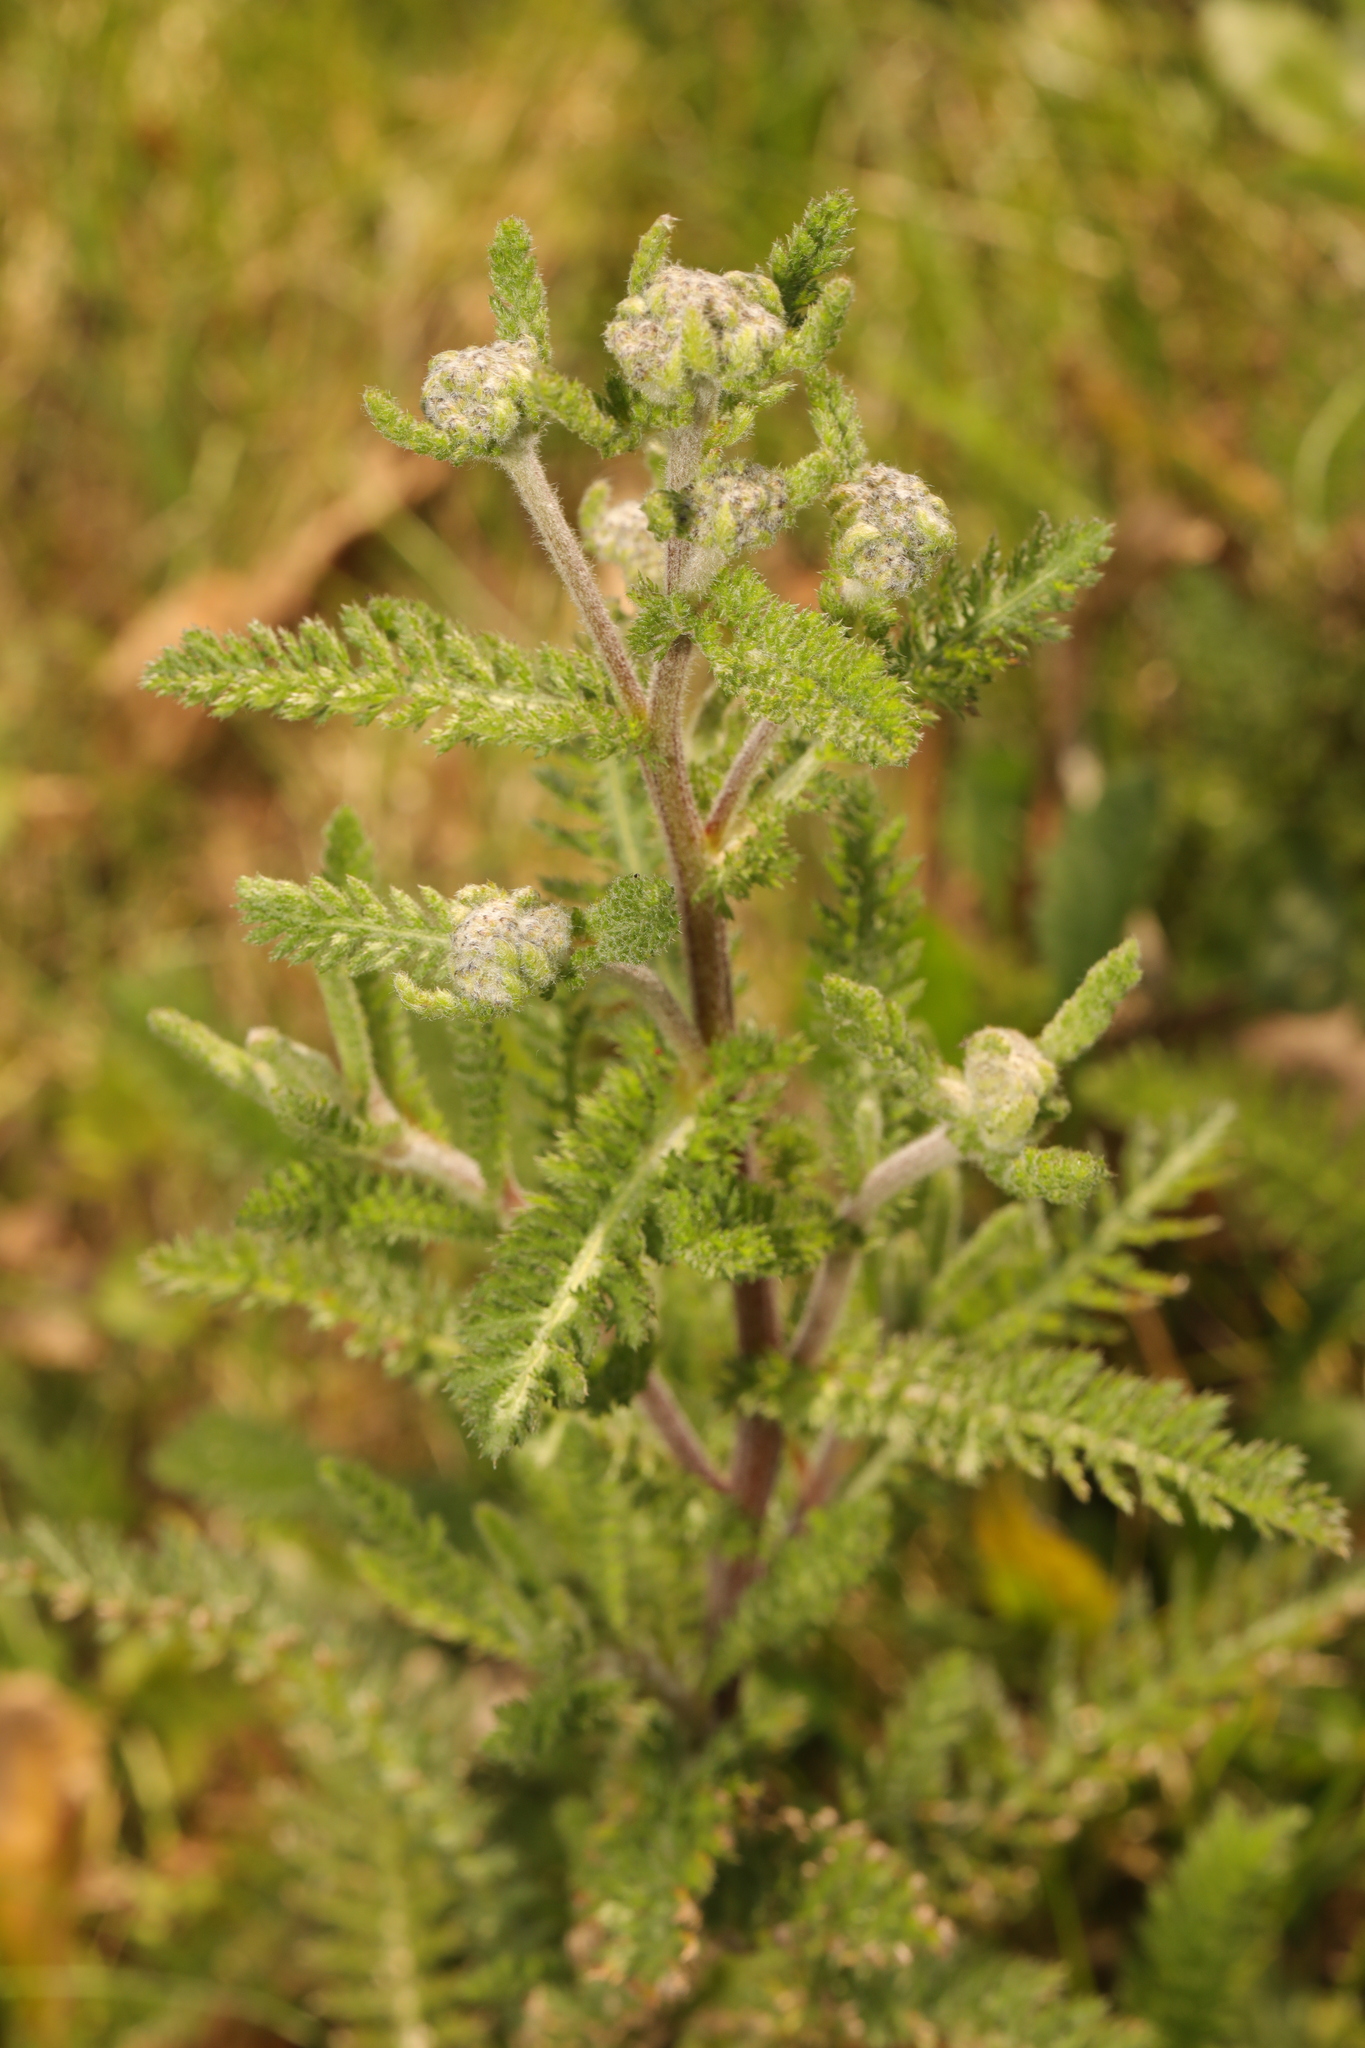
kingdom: Plantae
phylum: Tracheophyta
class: Magnoliopsida
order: Asterales
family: Asteraceae
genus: Achillea
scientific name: Achillea millefolium
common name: Yarrow
